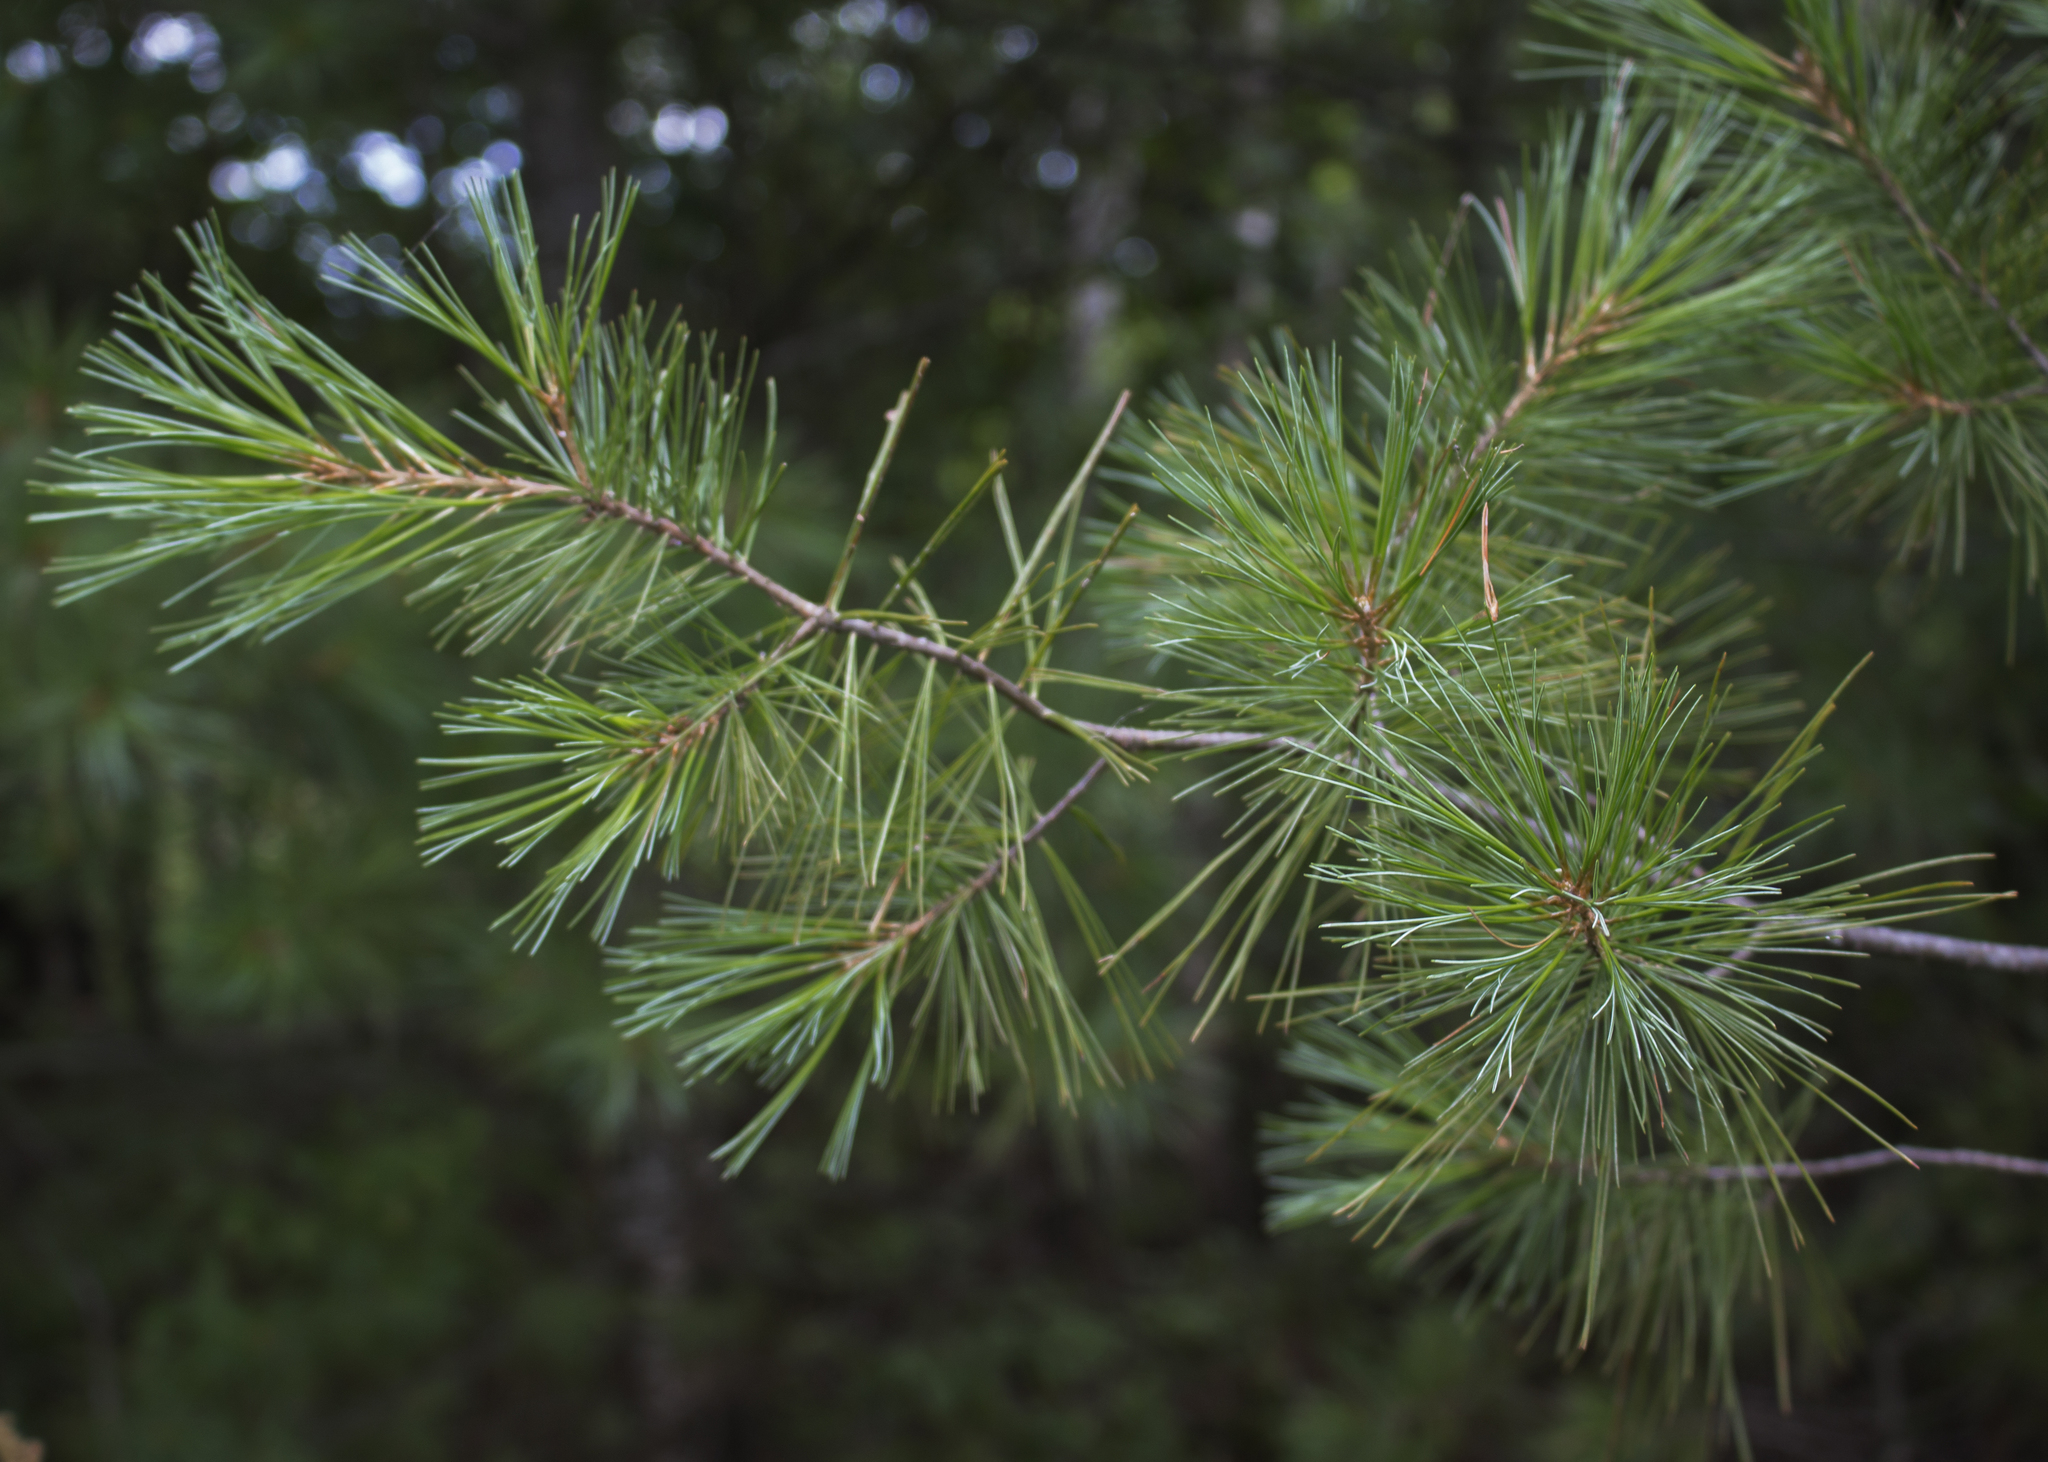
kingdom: Plantae
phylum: Tracheophyta
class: Pinopsida
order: Pinales
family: Pinaceae
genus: Pinus
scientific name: Pinus strobus
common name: Weymouth pine
